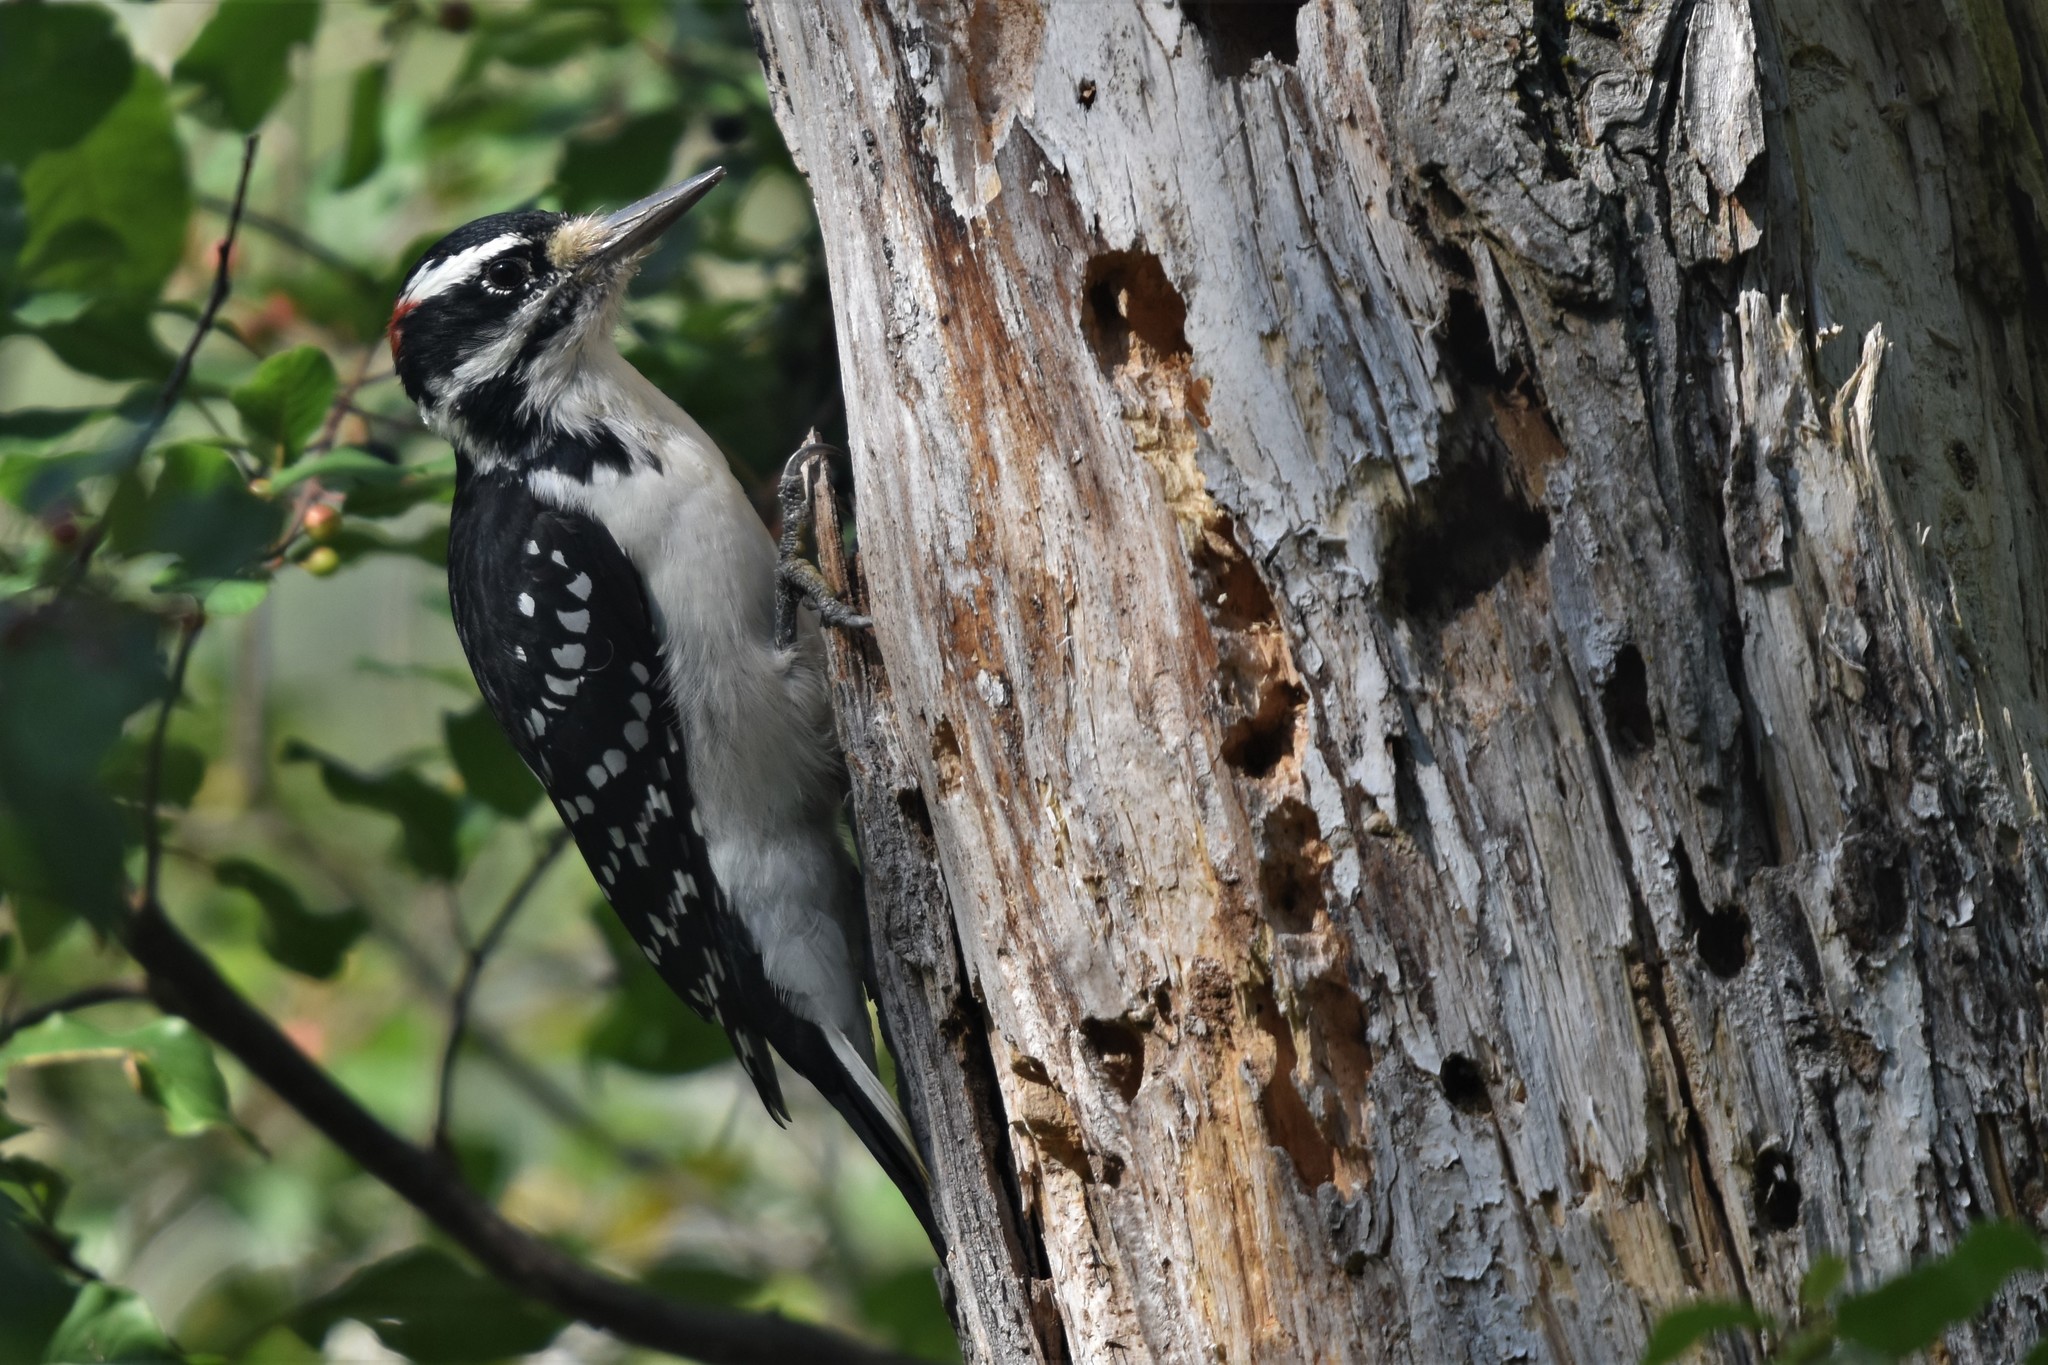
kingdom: Animalia
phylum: Chordata
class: Aves
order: Piciformes
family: Picidae
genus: Leuconotopicus
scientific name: Leuconotopicus villosus
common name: Hairy woodpecker
